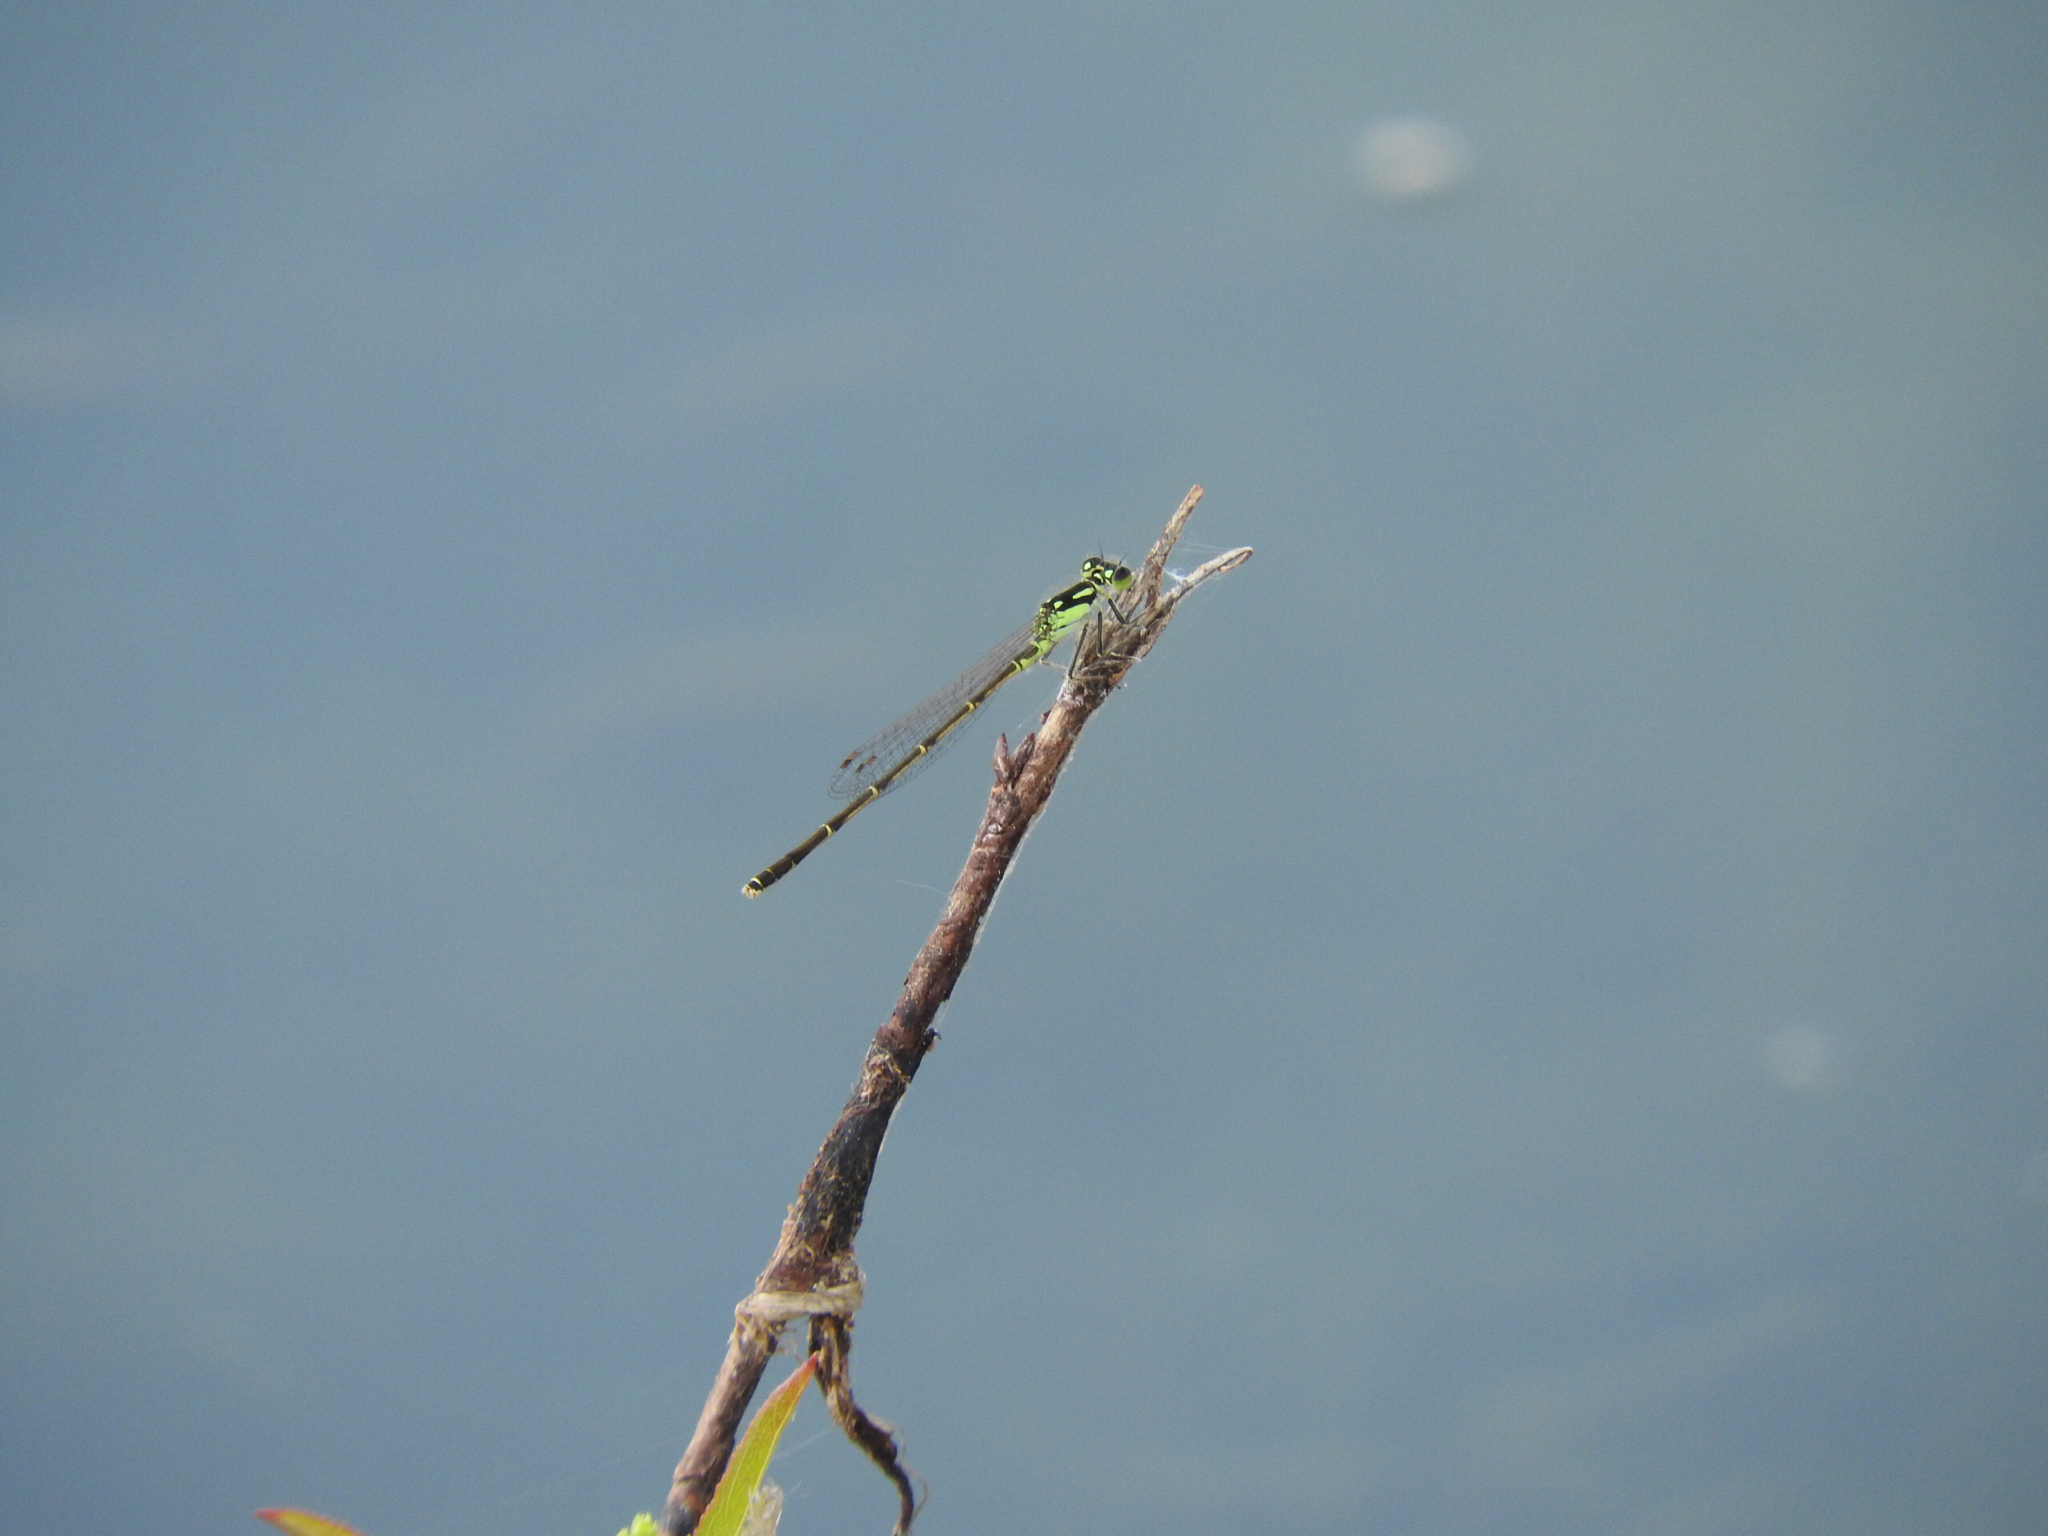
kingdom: Animalia
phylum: Arthropoda
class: Insecta
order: Odonata
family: Coenagrionidae
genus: Ischnura
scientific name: Ischnura posita
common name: Fragile forktail
